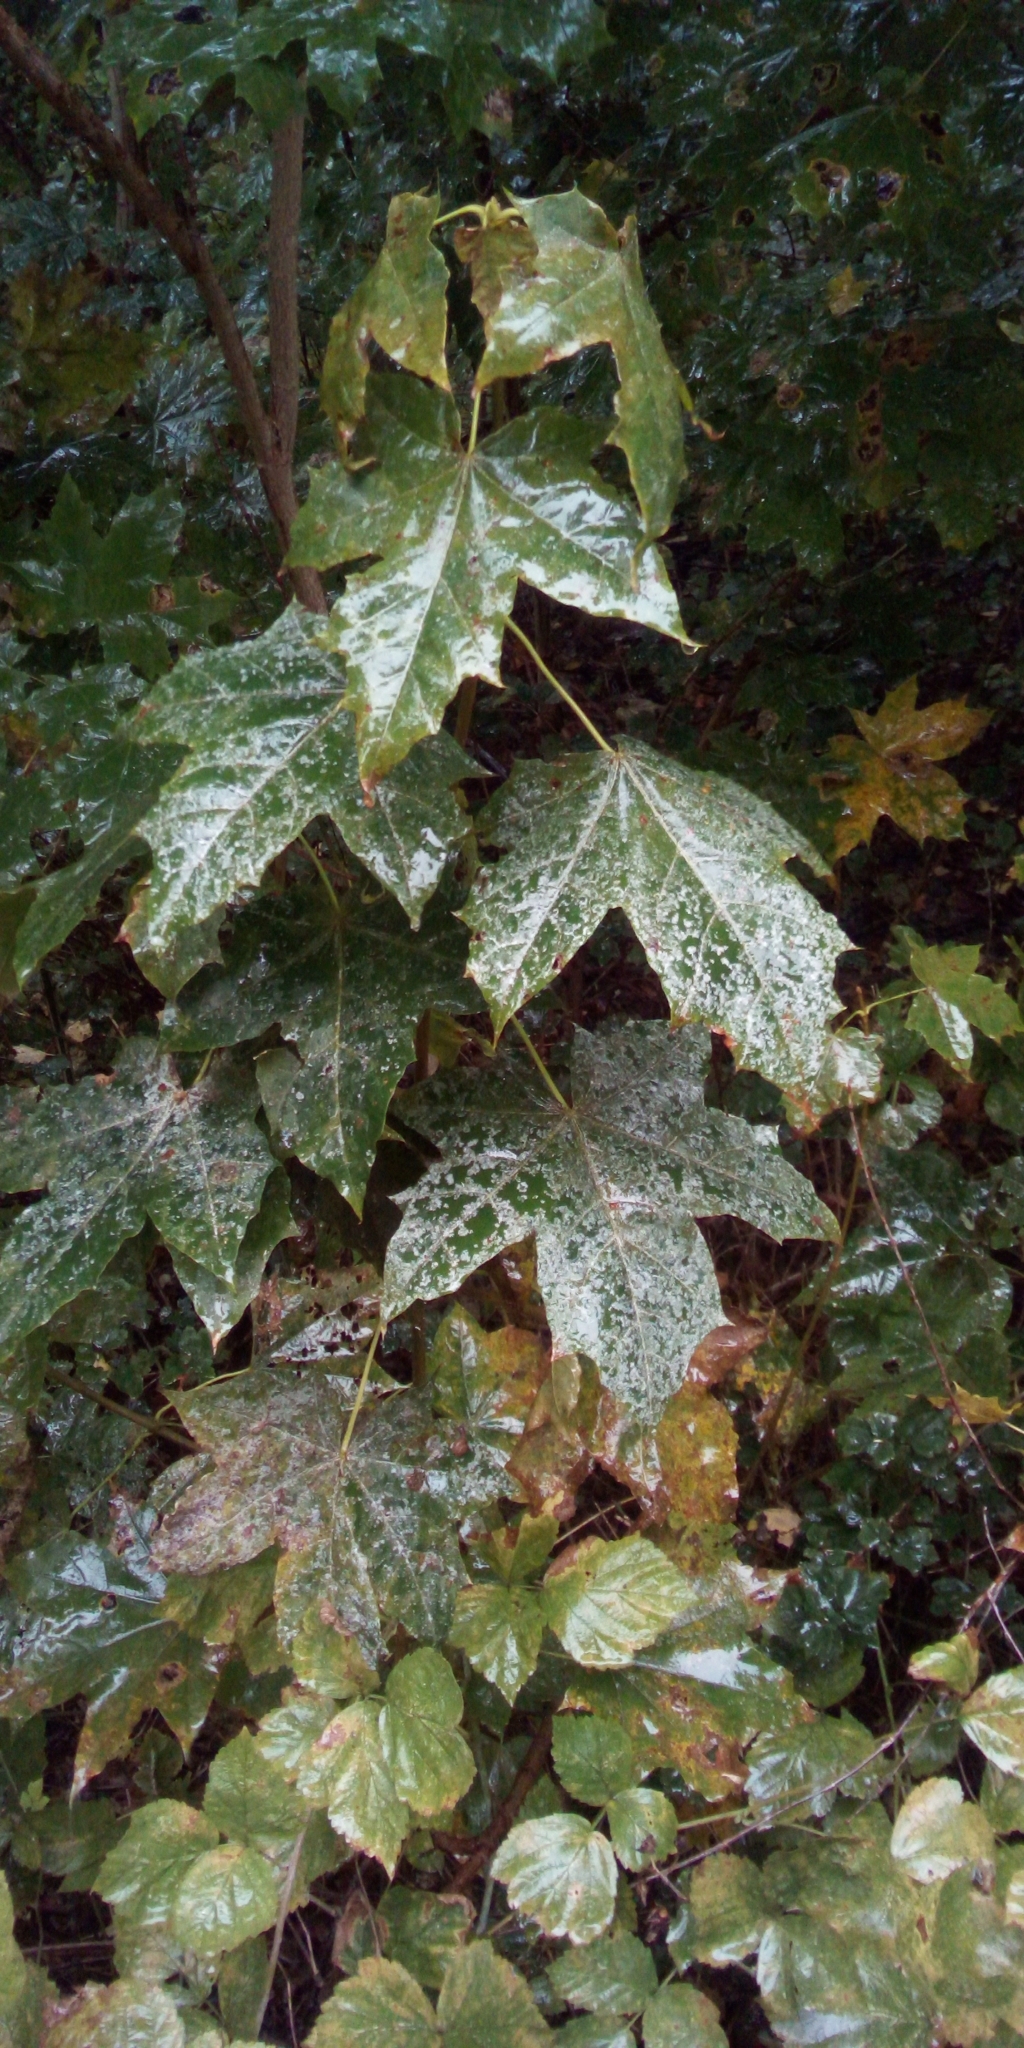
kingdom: Plantae
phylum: Tracheophyta
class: Magnoliopsida
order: Sapindales
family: Sapindaceae
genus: Acer
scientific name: Acer platanoides
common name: Norway maple
